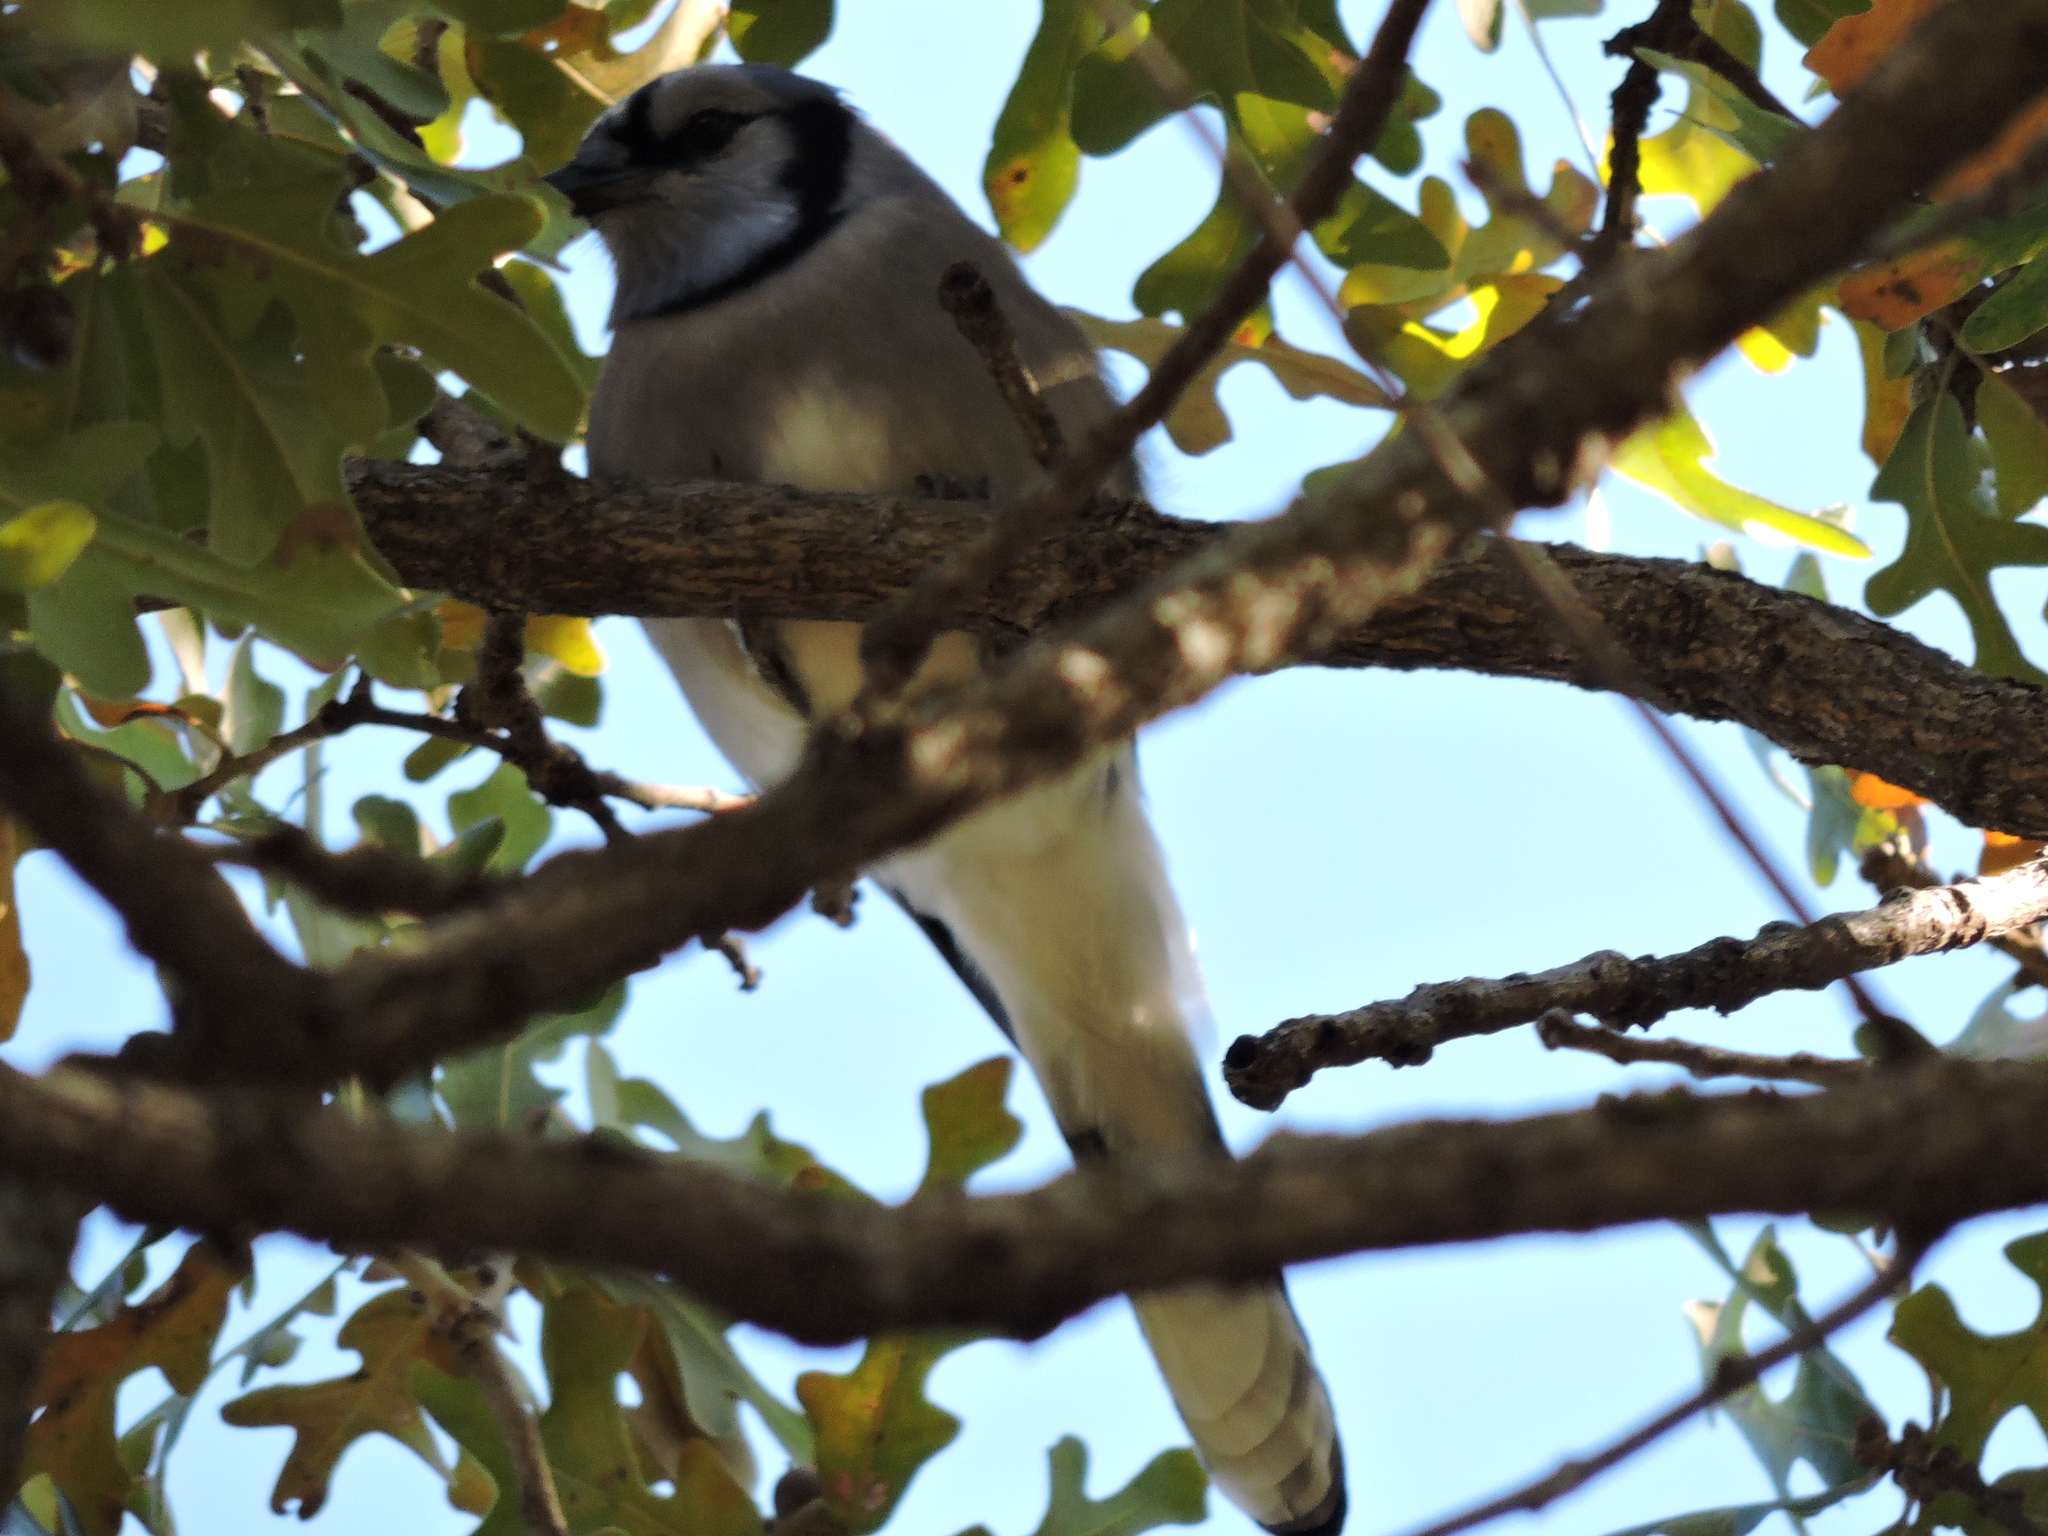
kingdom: Animalia
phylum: Chordata
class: Aves
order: Passeriformes
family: Corvidae
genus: Cyanocitta
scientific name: Cyanocitta cristata
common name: Blue jay
